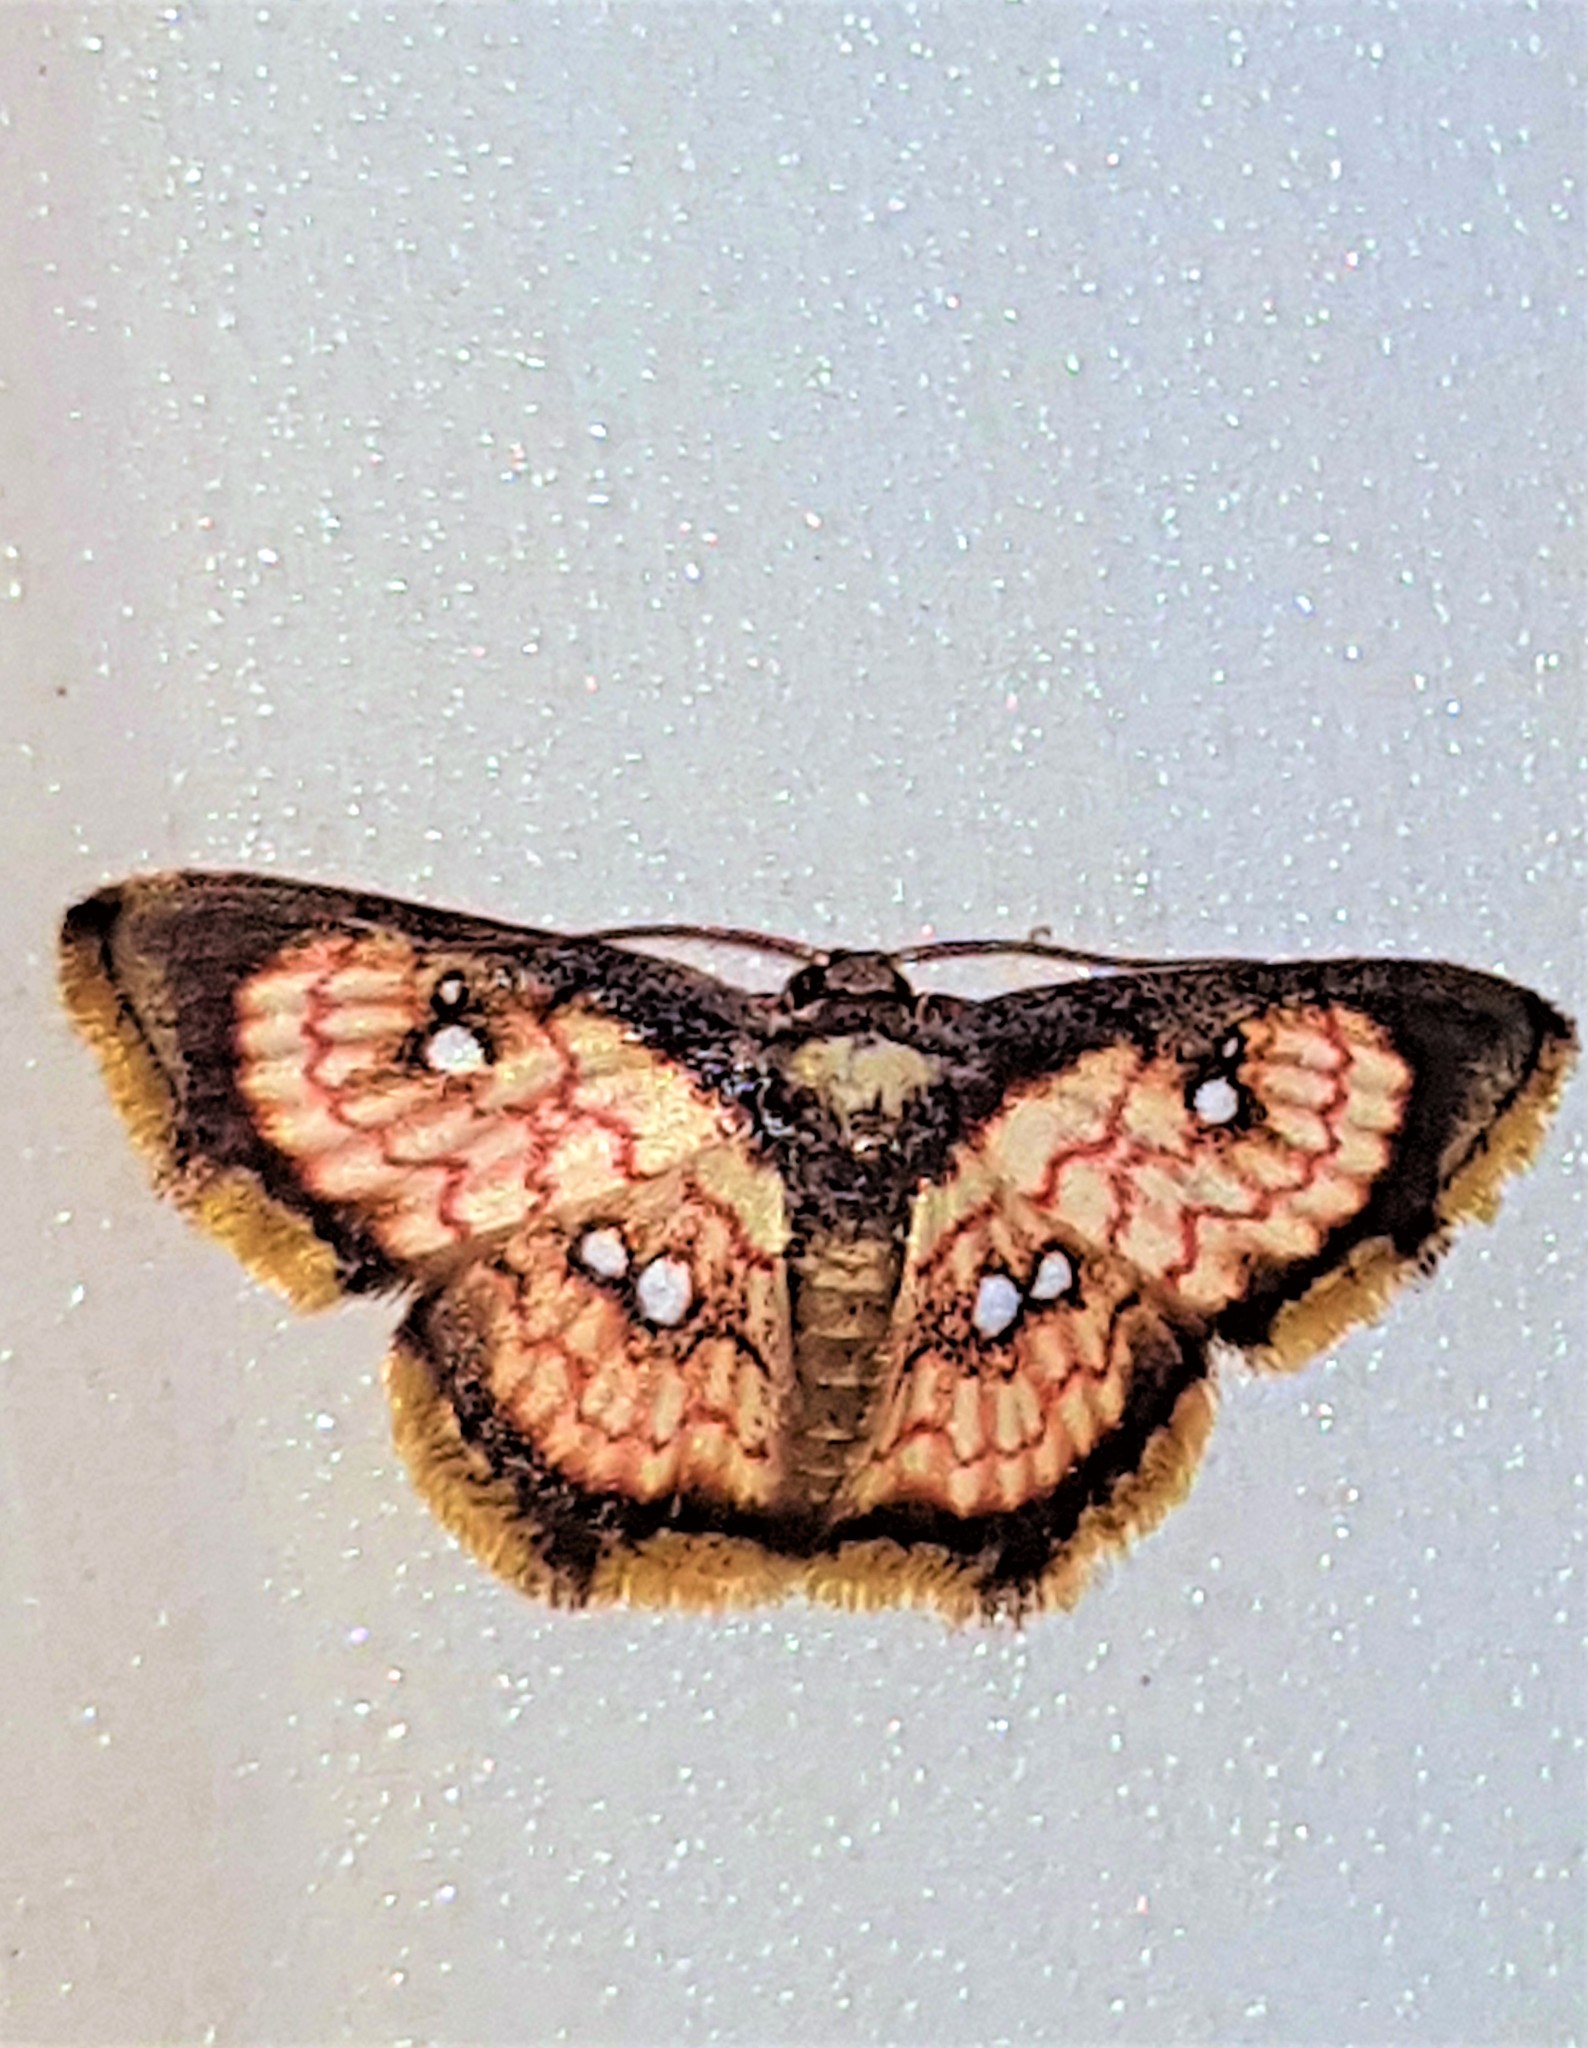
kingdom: Animalia
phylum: Arthropoda
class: Insecta
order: Lepidoptera
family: Geometridae
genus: Tricentra
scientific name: Tricentra brunneomarginata
